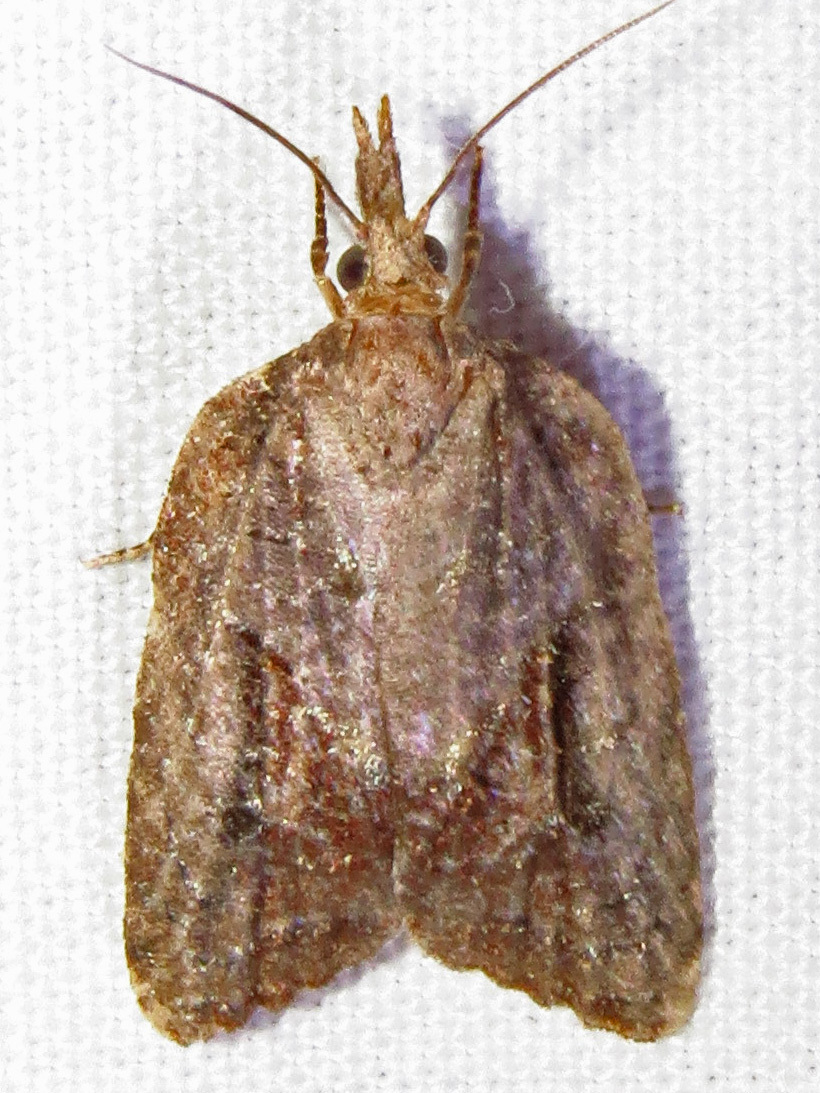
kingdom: Animalia
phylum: Arthropoda
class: Insecta
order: Lepidoptera
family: Tortricidae
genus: Platynota
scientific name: Platynota idaeusalis
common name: Tufted apple bud moth
